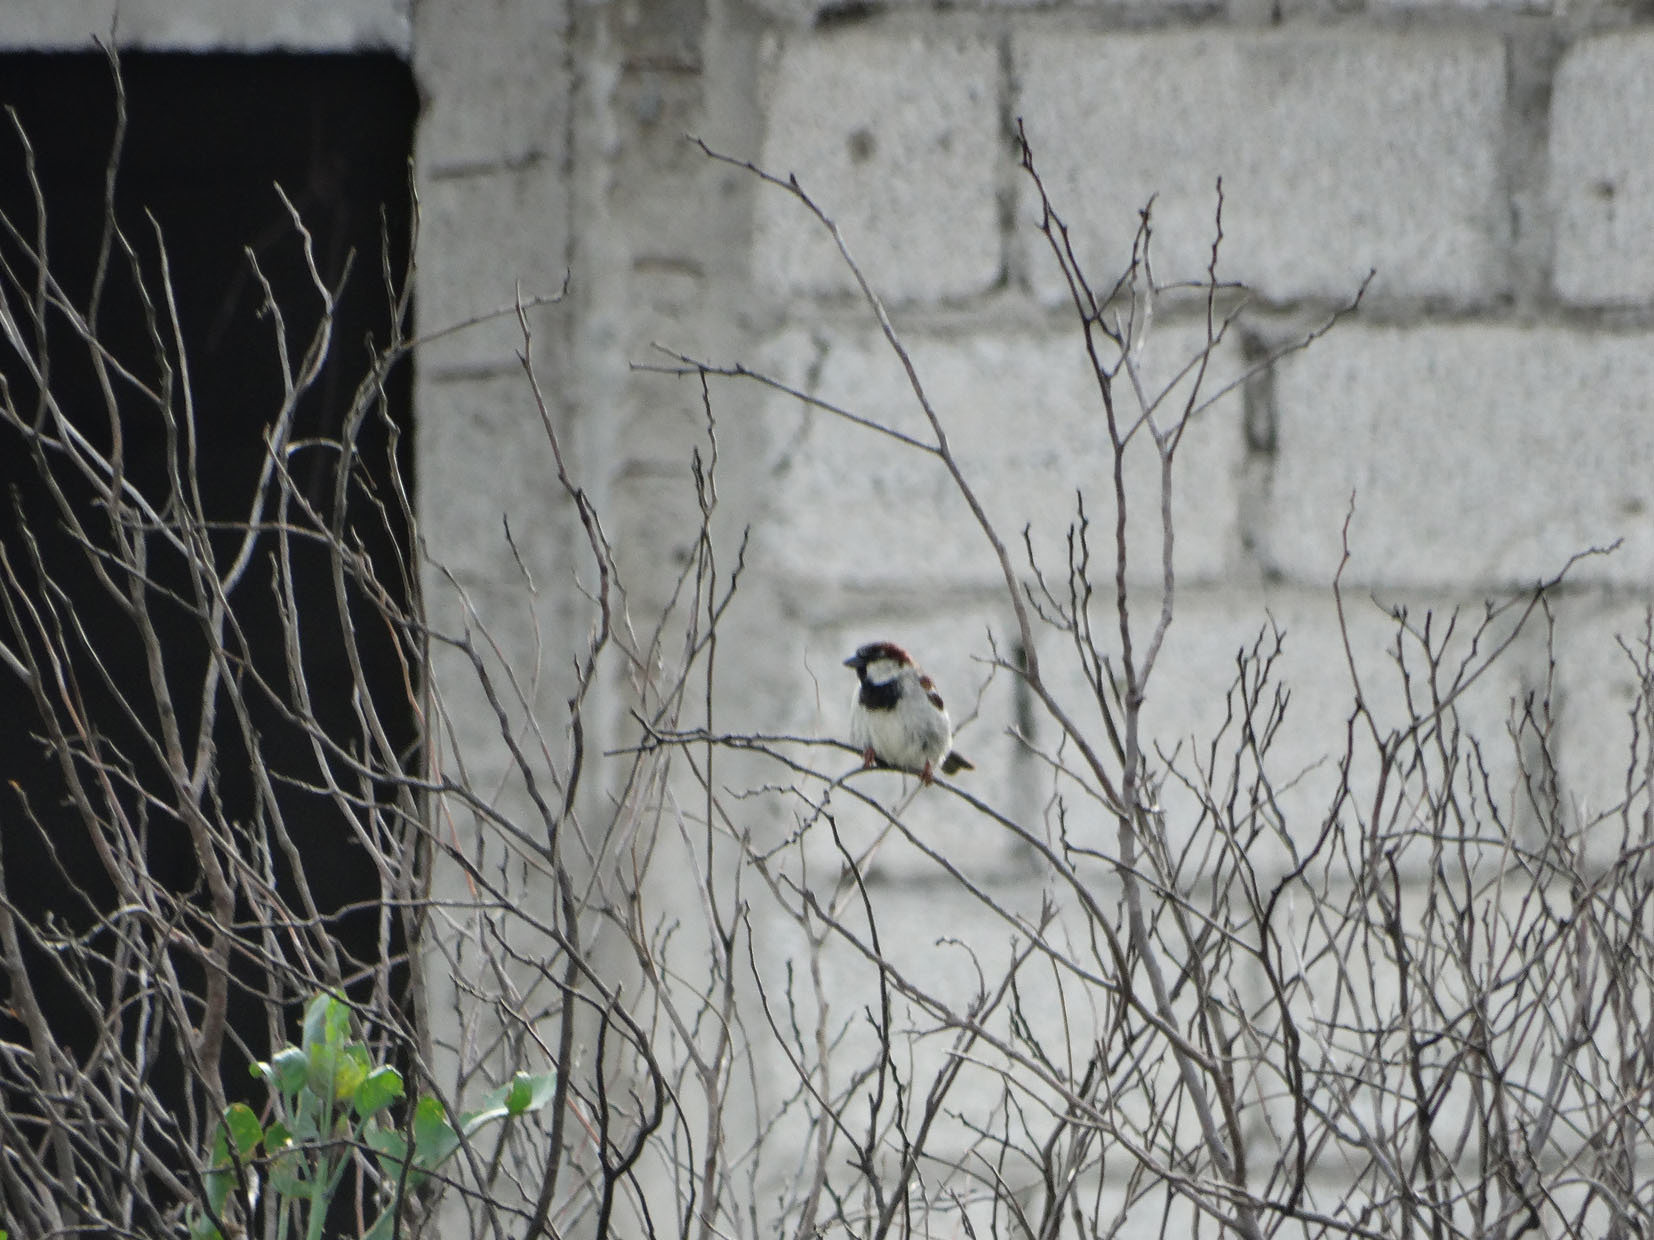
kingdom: Animalia
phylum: Chordata
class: Aves
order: Passeriformes
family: Passeridae
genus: Passer
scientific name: Passer domesticus
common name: House sparrow
